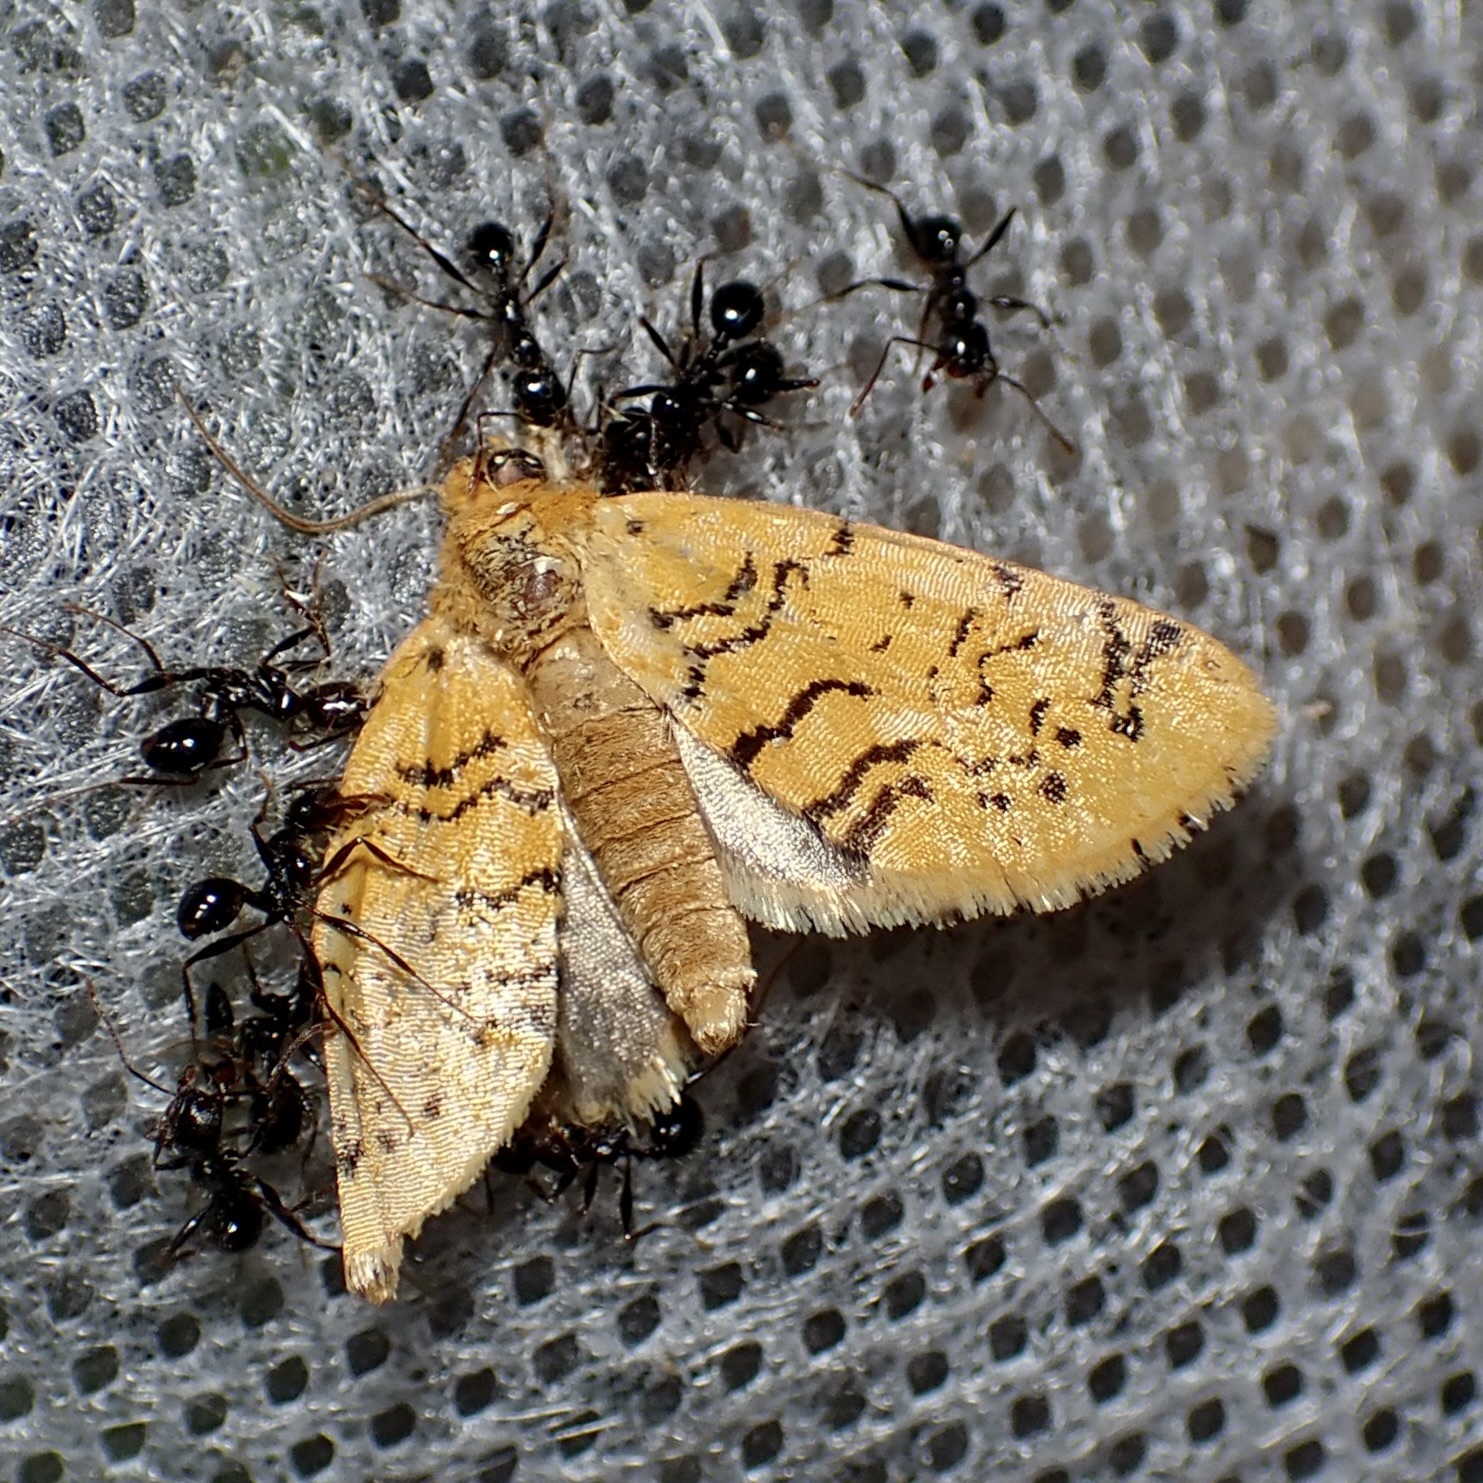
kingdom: Animalia
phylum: Arthropoda
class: Insecta
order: Lepidoptera
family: Noctuidae
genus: Chrysoecia
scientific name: Chrysoecia atrolinea
